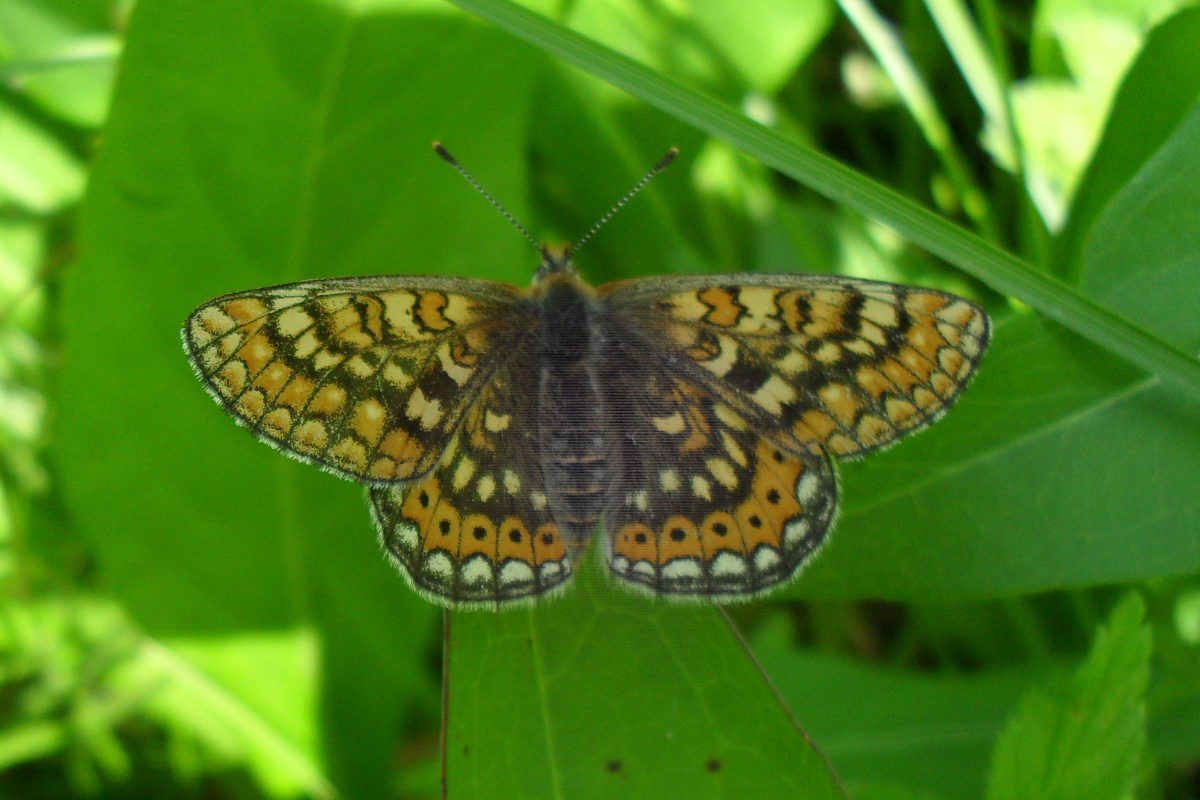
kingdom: Animalia
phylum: Arthropoda
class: Insecta
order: Lepidoptera
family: Nymphalidae
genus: Euphydryas
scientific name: Euphydryas aurinia
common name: Marsh fritillary
